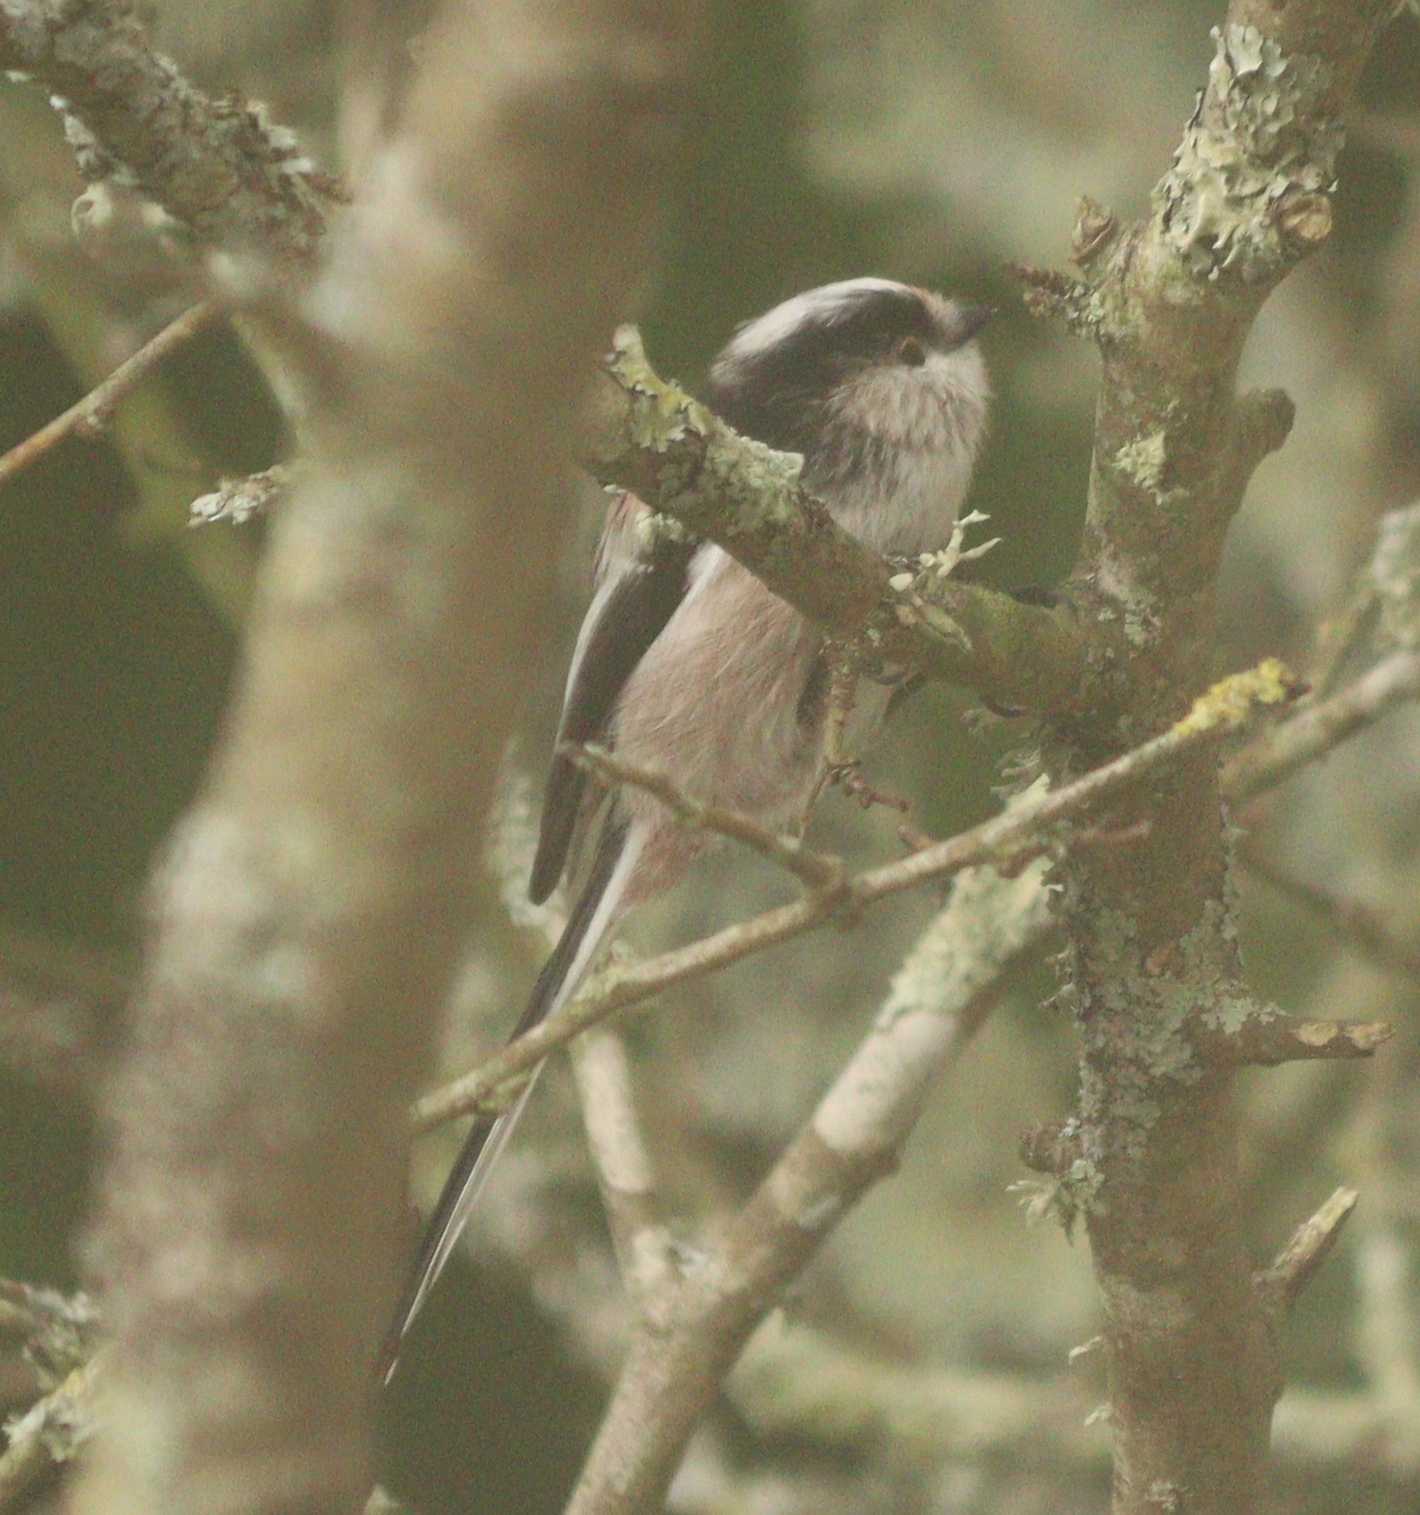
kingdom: Animalia
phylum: Chordata
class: Aves
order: Passeriformes
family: Aegithalidae
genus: Aegithalos
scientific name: Aegithalos caudatus
